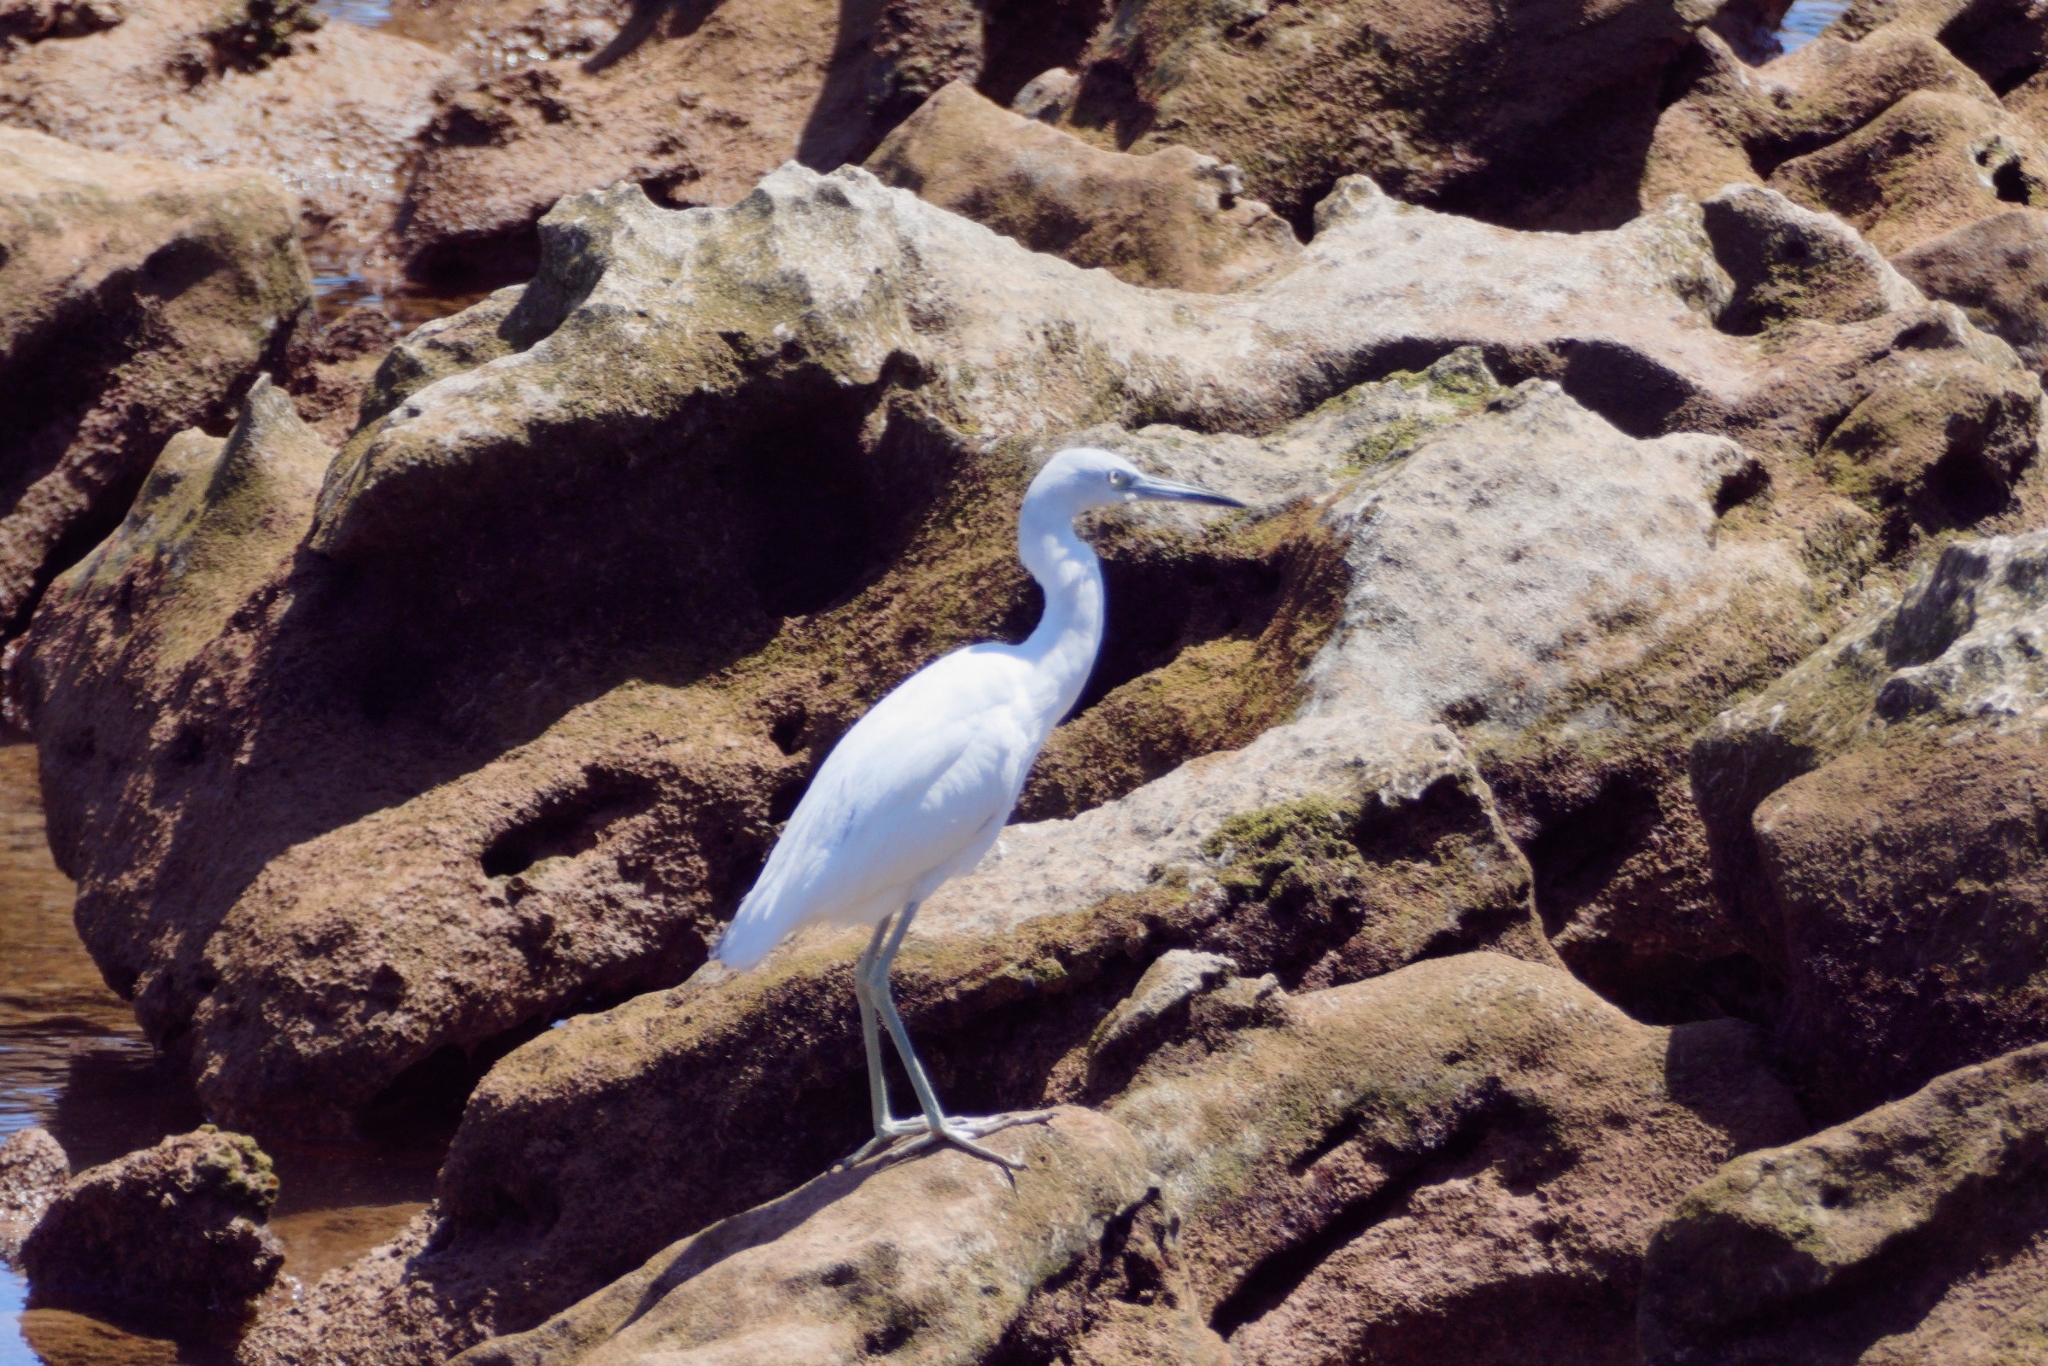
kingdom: Animalia
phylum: Chordata
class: Aves
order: Pelecaniformes
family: Ardeidae
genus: Egretta
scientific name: Egretta caerulea
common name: Little blue heron
